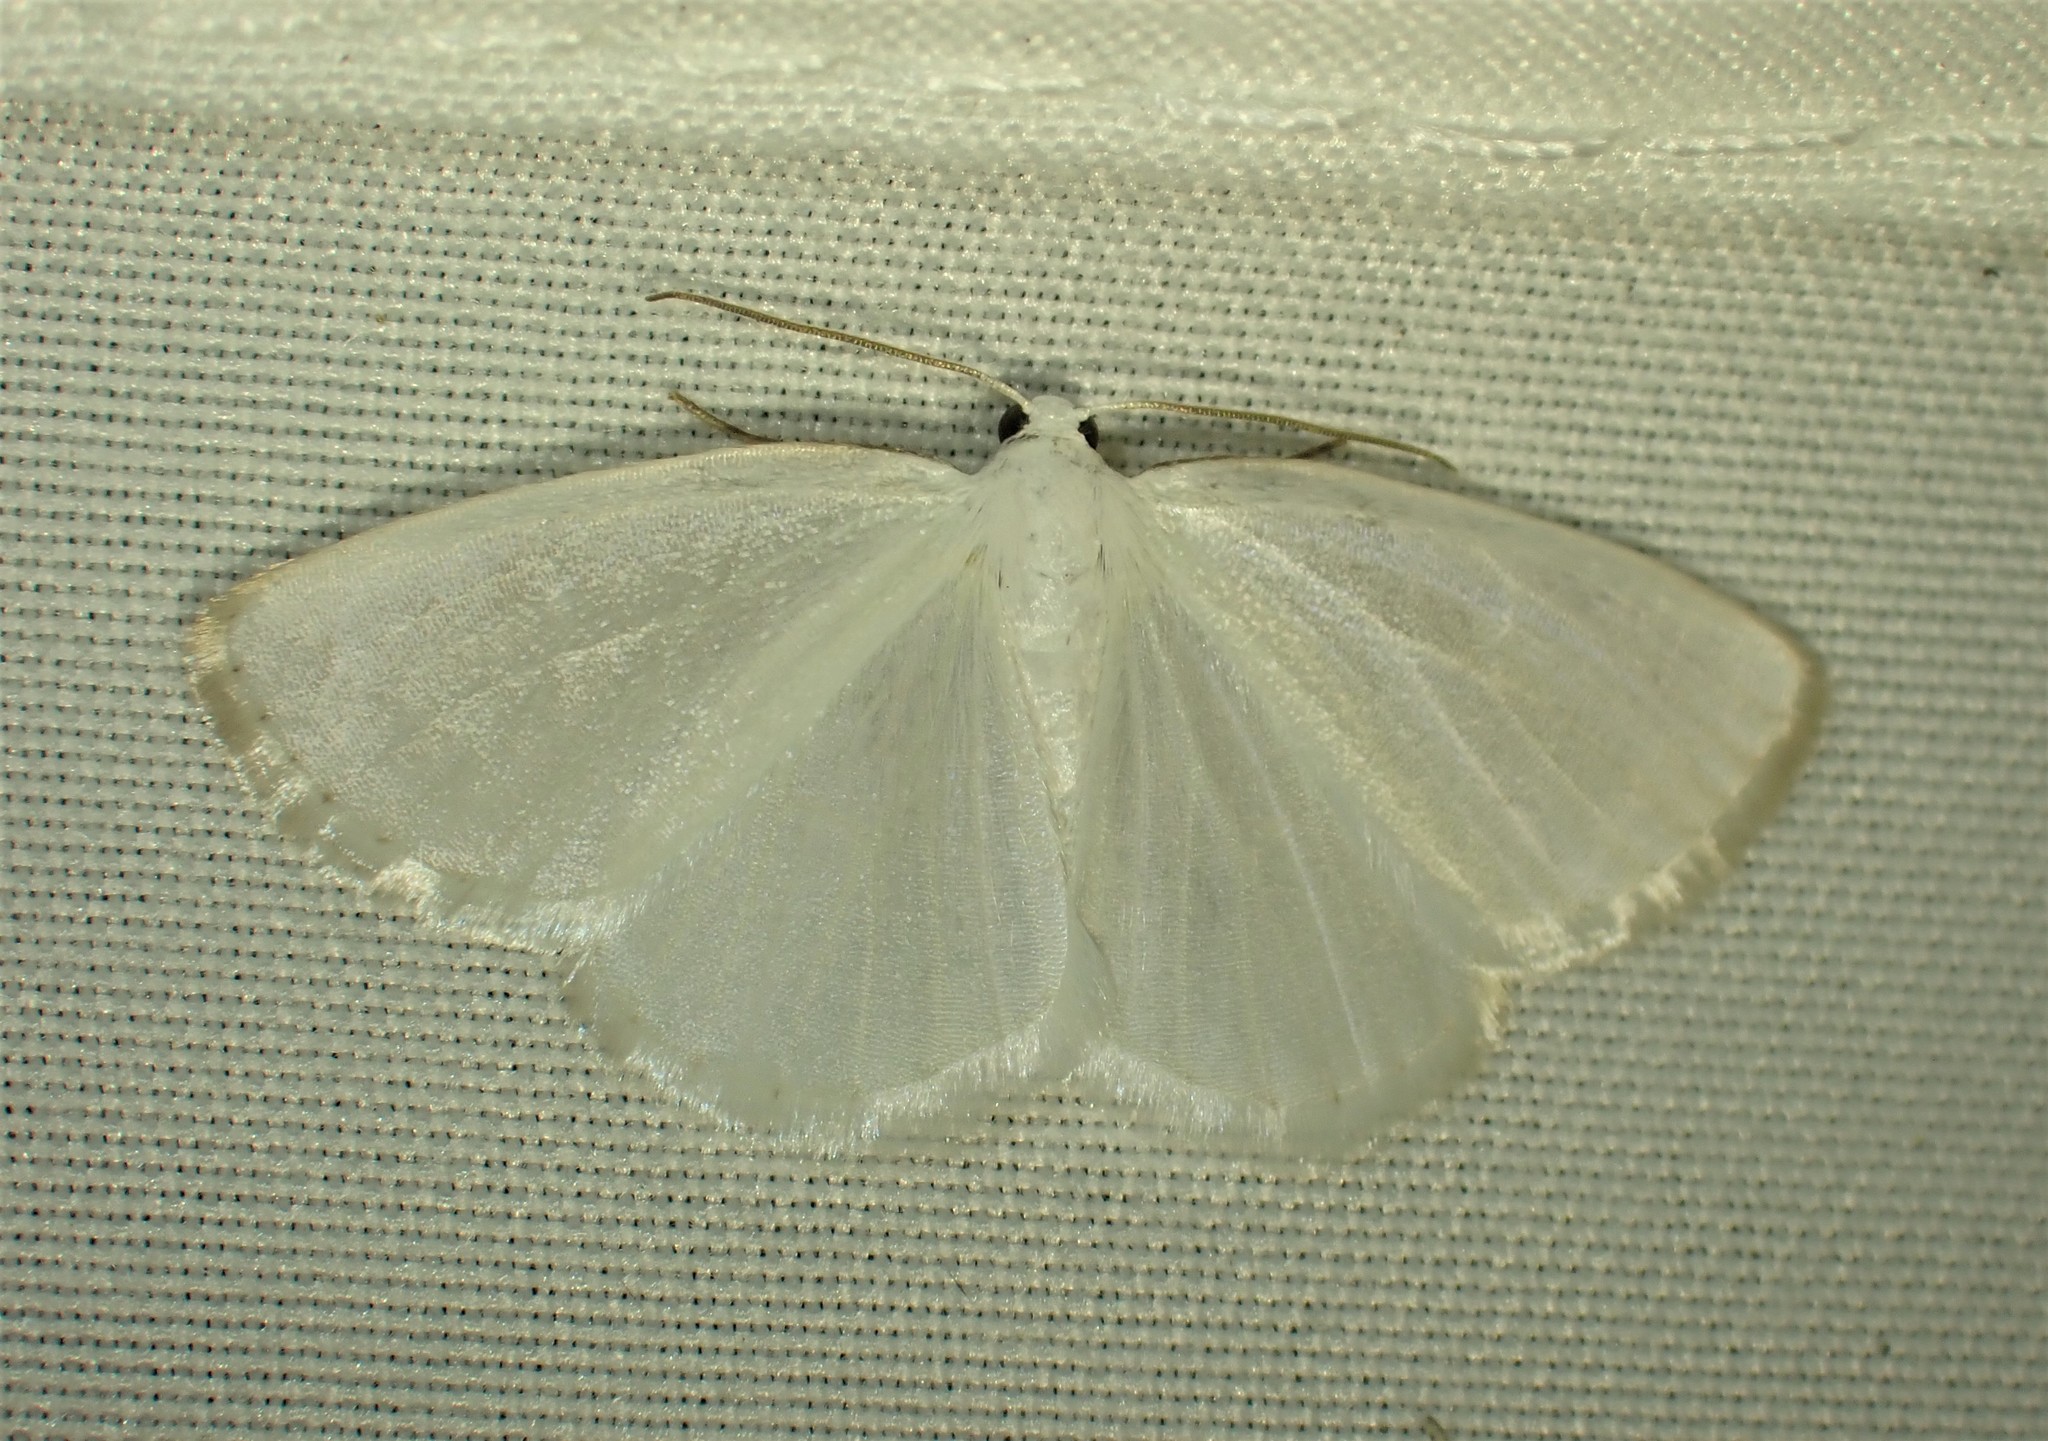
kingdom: Animalia
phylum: Arthropoda
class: Insecta
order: Lepidoptera
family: Geometridae
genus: Lomographa
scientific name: Lomographa vestaliata
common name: White spring moth
